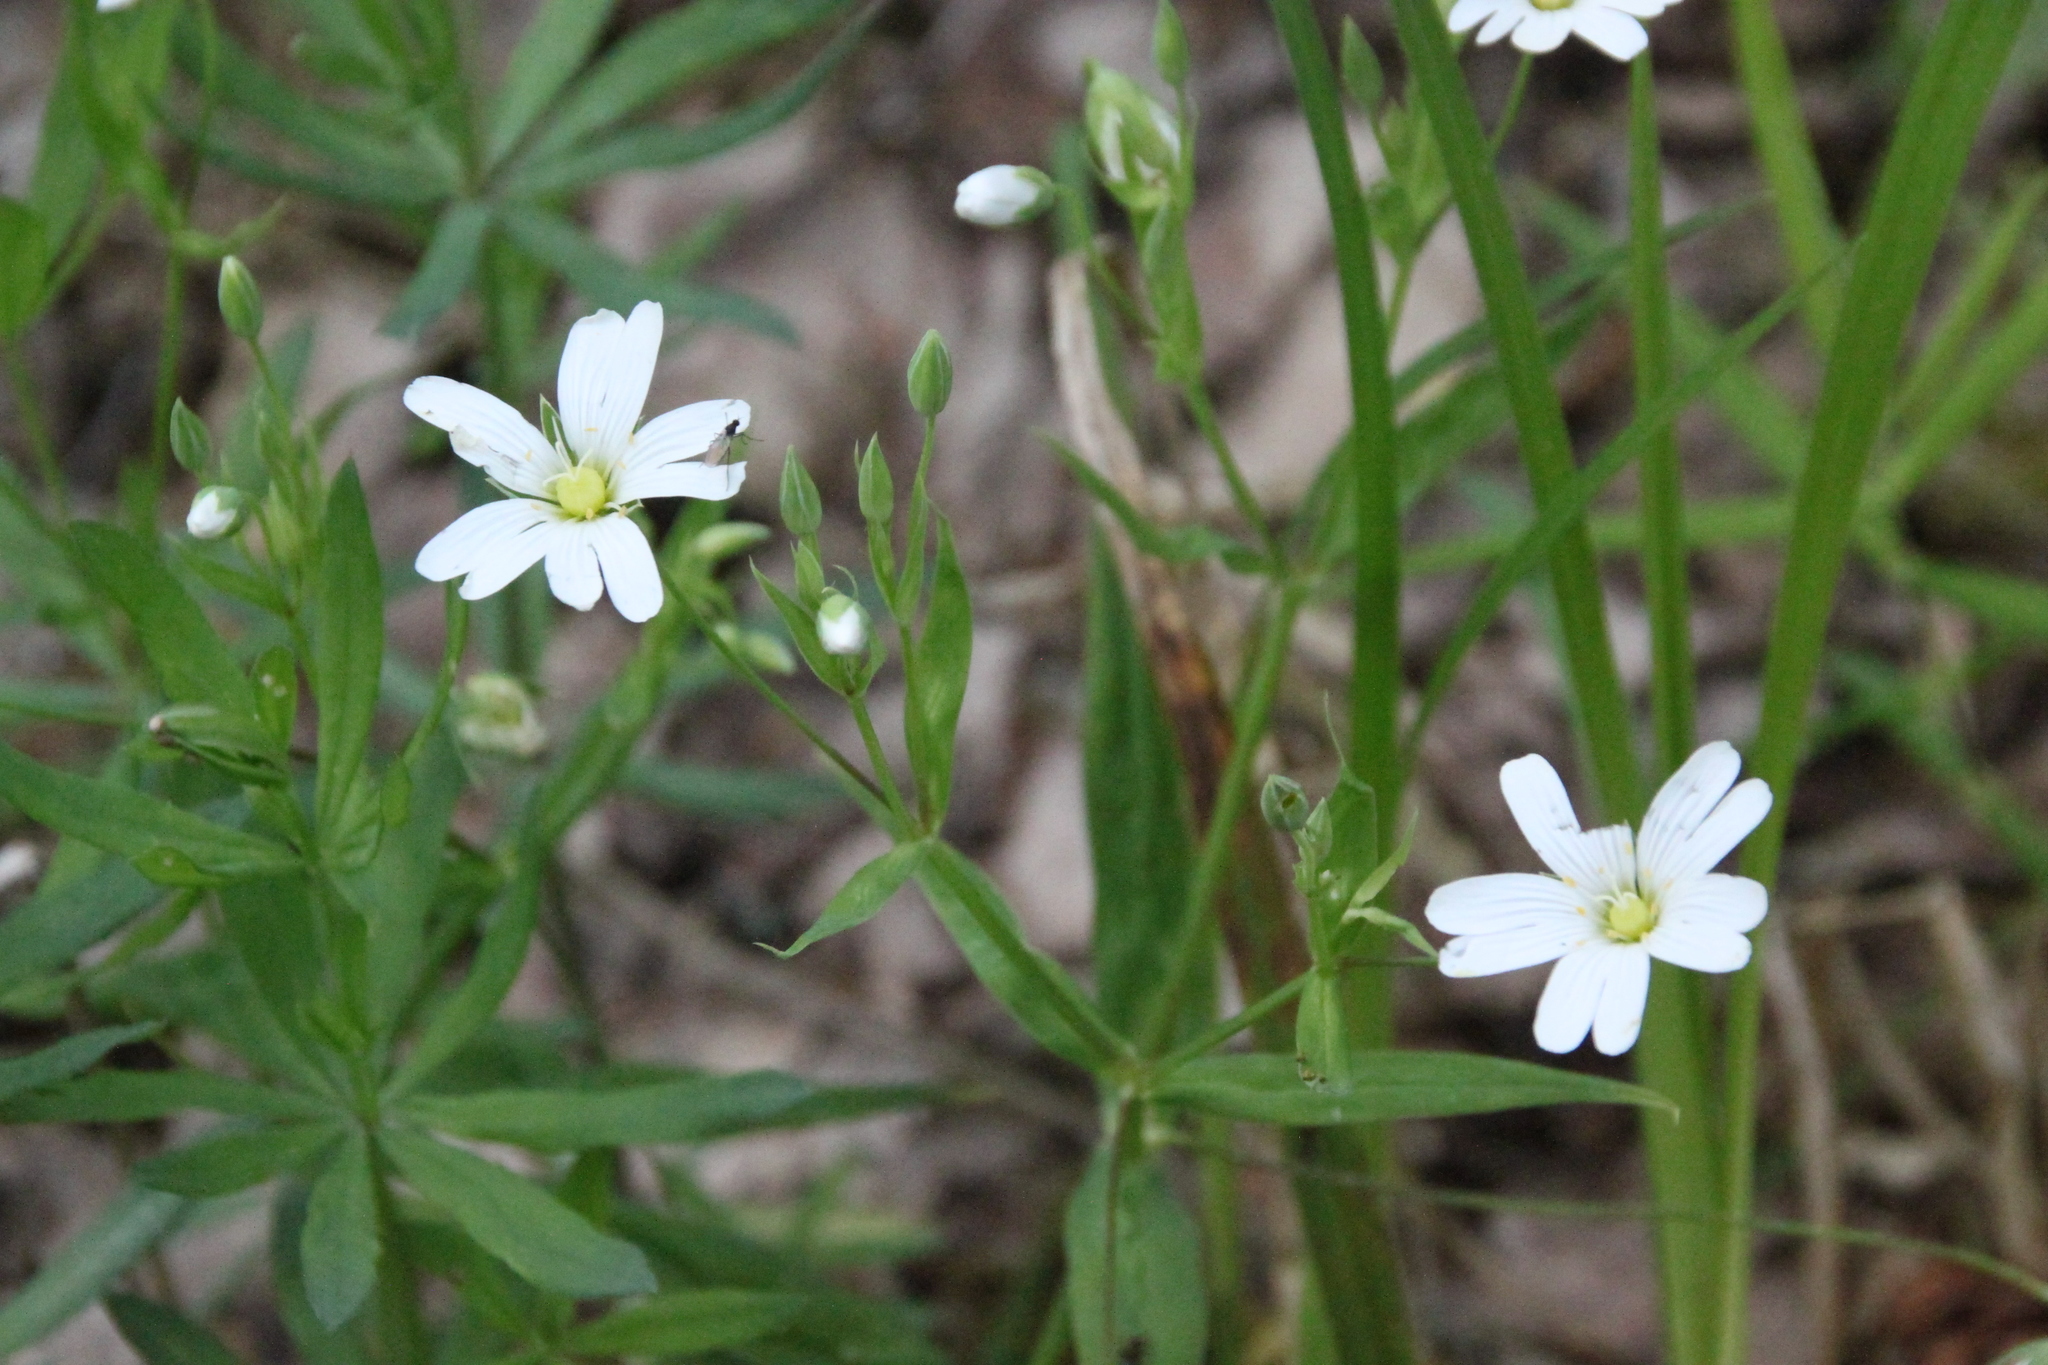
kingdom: Plantae
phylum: Tracheophyta
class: Magnoliopsida
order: Caryophyllales
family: Caryophyllaceae
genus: Rabelera
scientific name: Rabelera holostea
